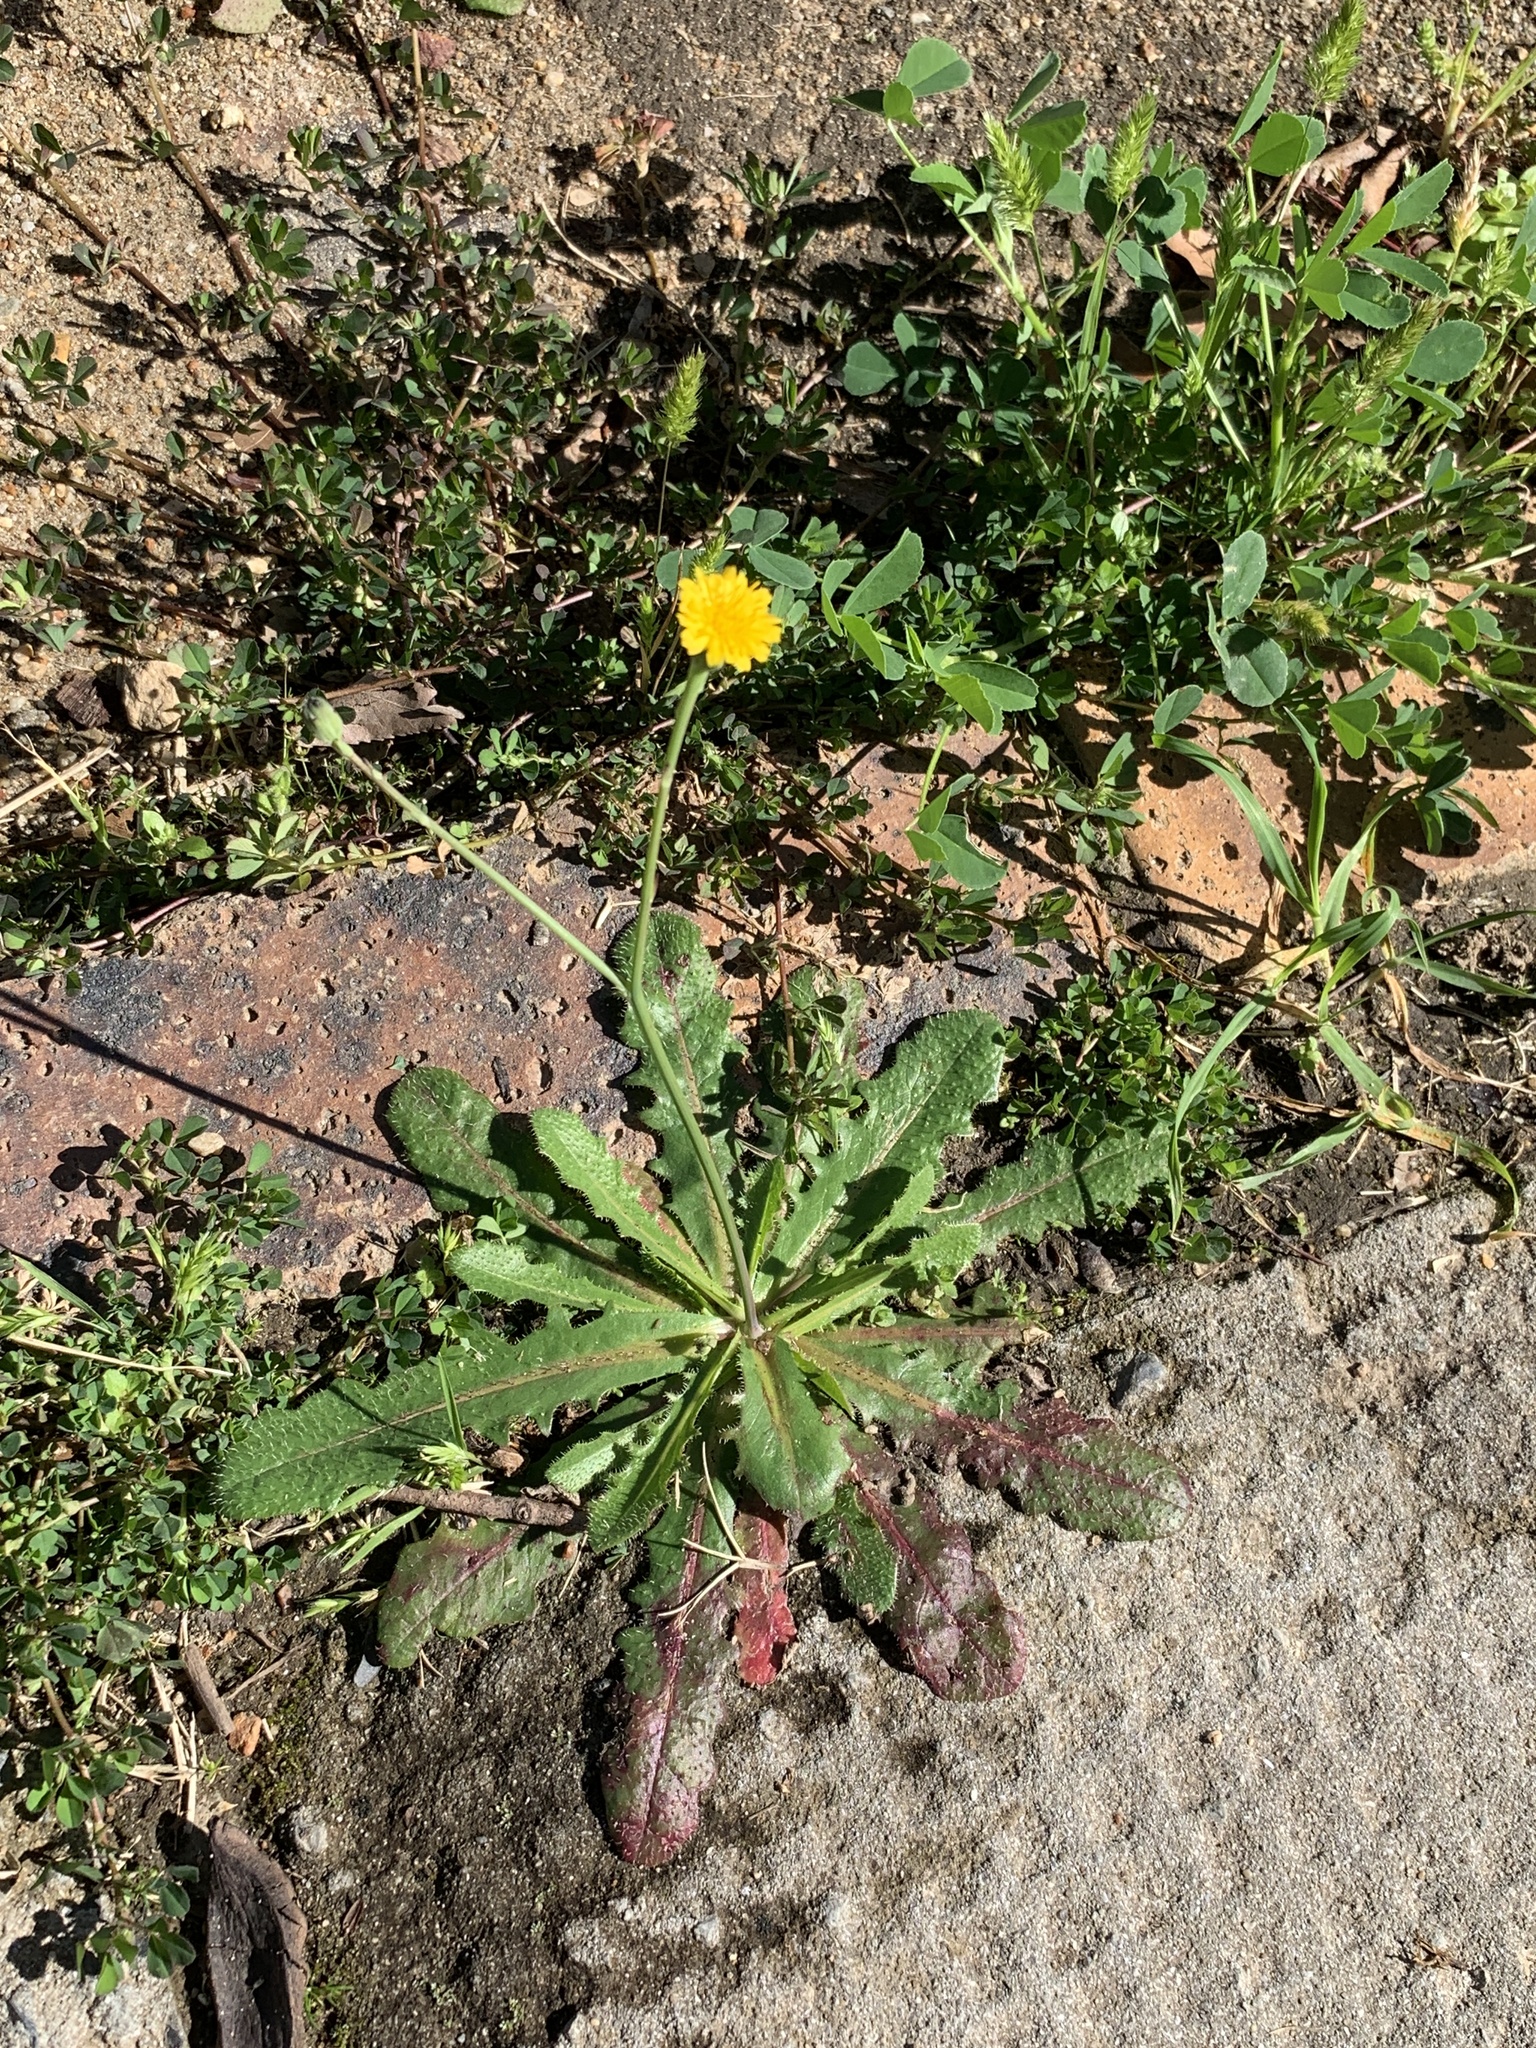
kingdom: Plantae
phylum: Tracheophyta
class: Magnoliopsida
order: Asterales
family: Asteraceae
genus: Hypochaeris
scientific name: Hypochaeris radicata
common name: Flatweed
